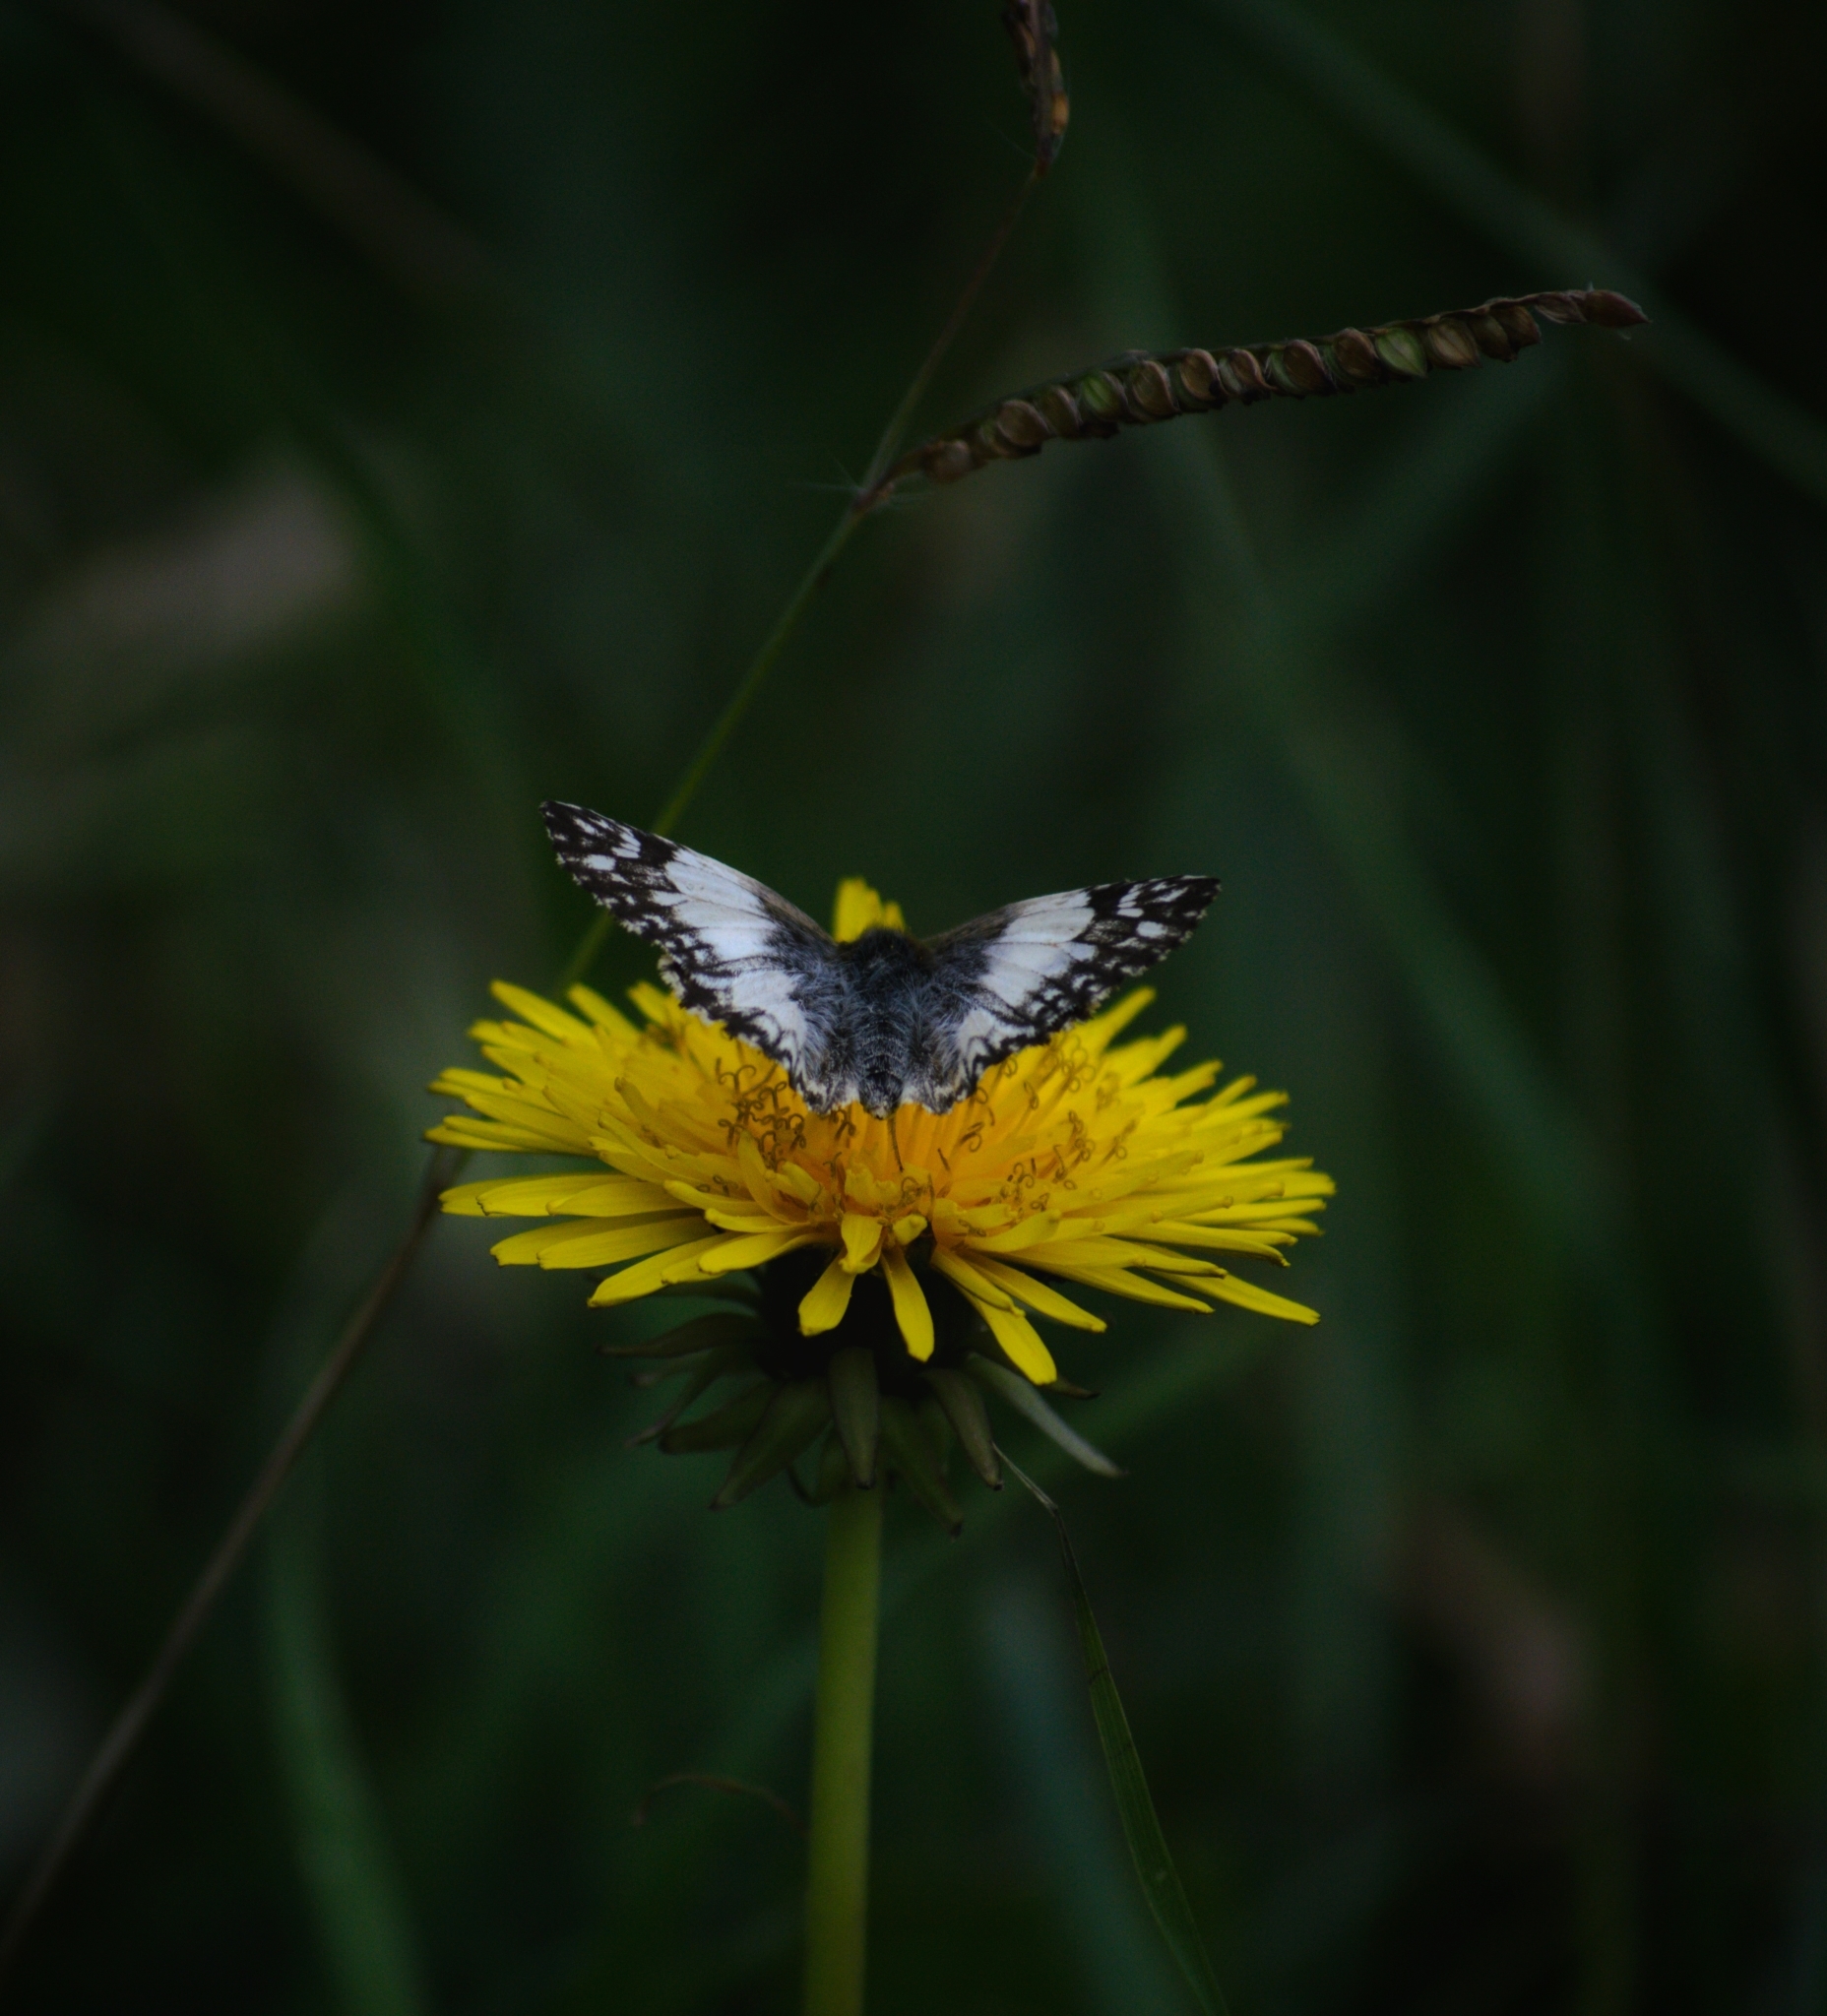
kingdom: Animalia
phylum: Arthropoda
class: Insecta
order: Lepidoptera
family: Hesperiidae
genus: Heliopetes
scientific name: Heliopetes omrina
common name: Stained white-skipper
